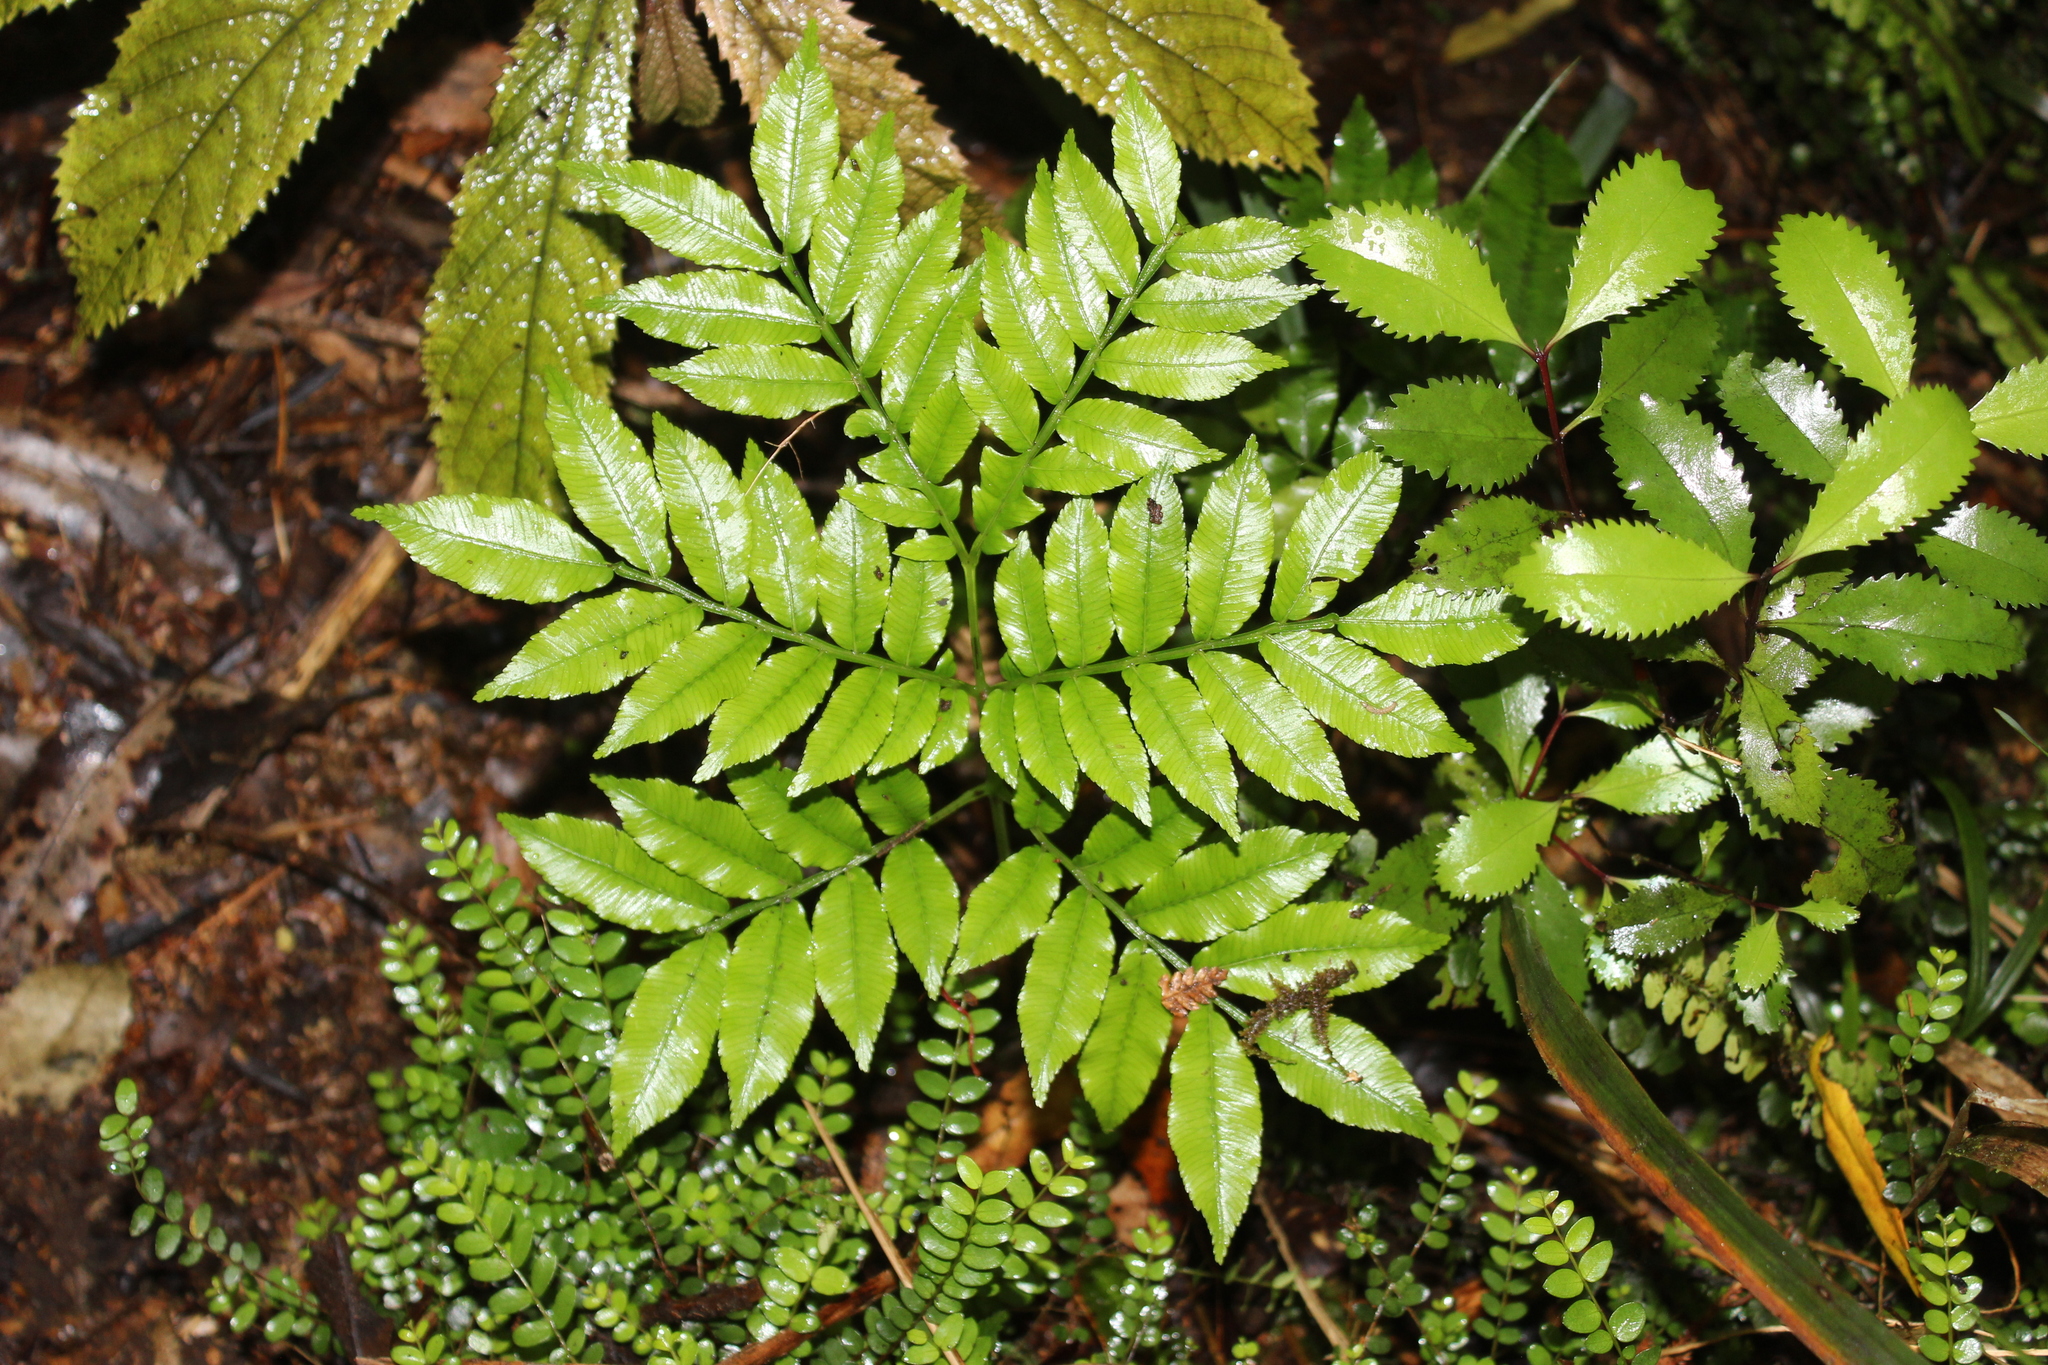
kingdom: Plantae
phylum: Tracheophyta
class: Polypodiopsida
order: Marattiales
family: Marattiaceae
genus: Ptisana
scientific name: Ptisana salicina
